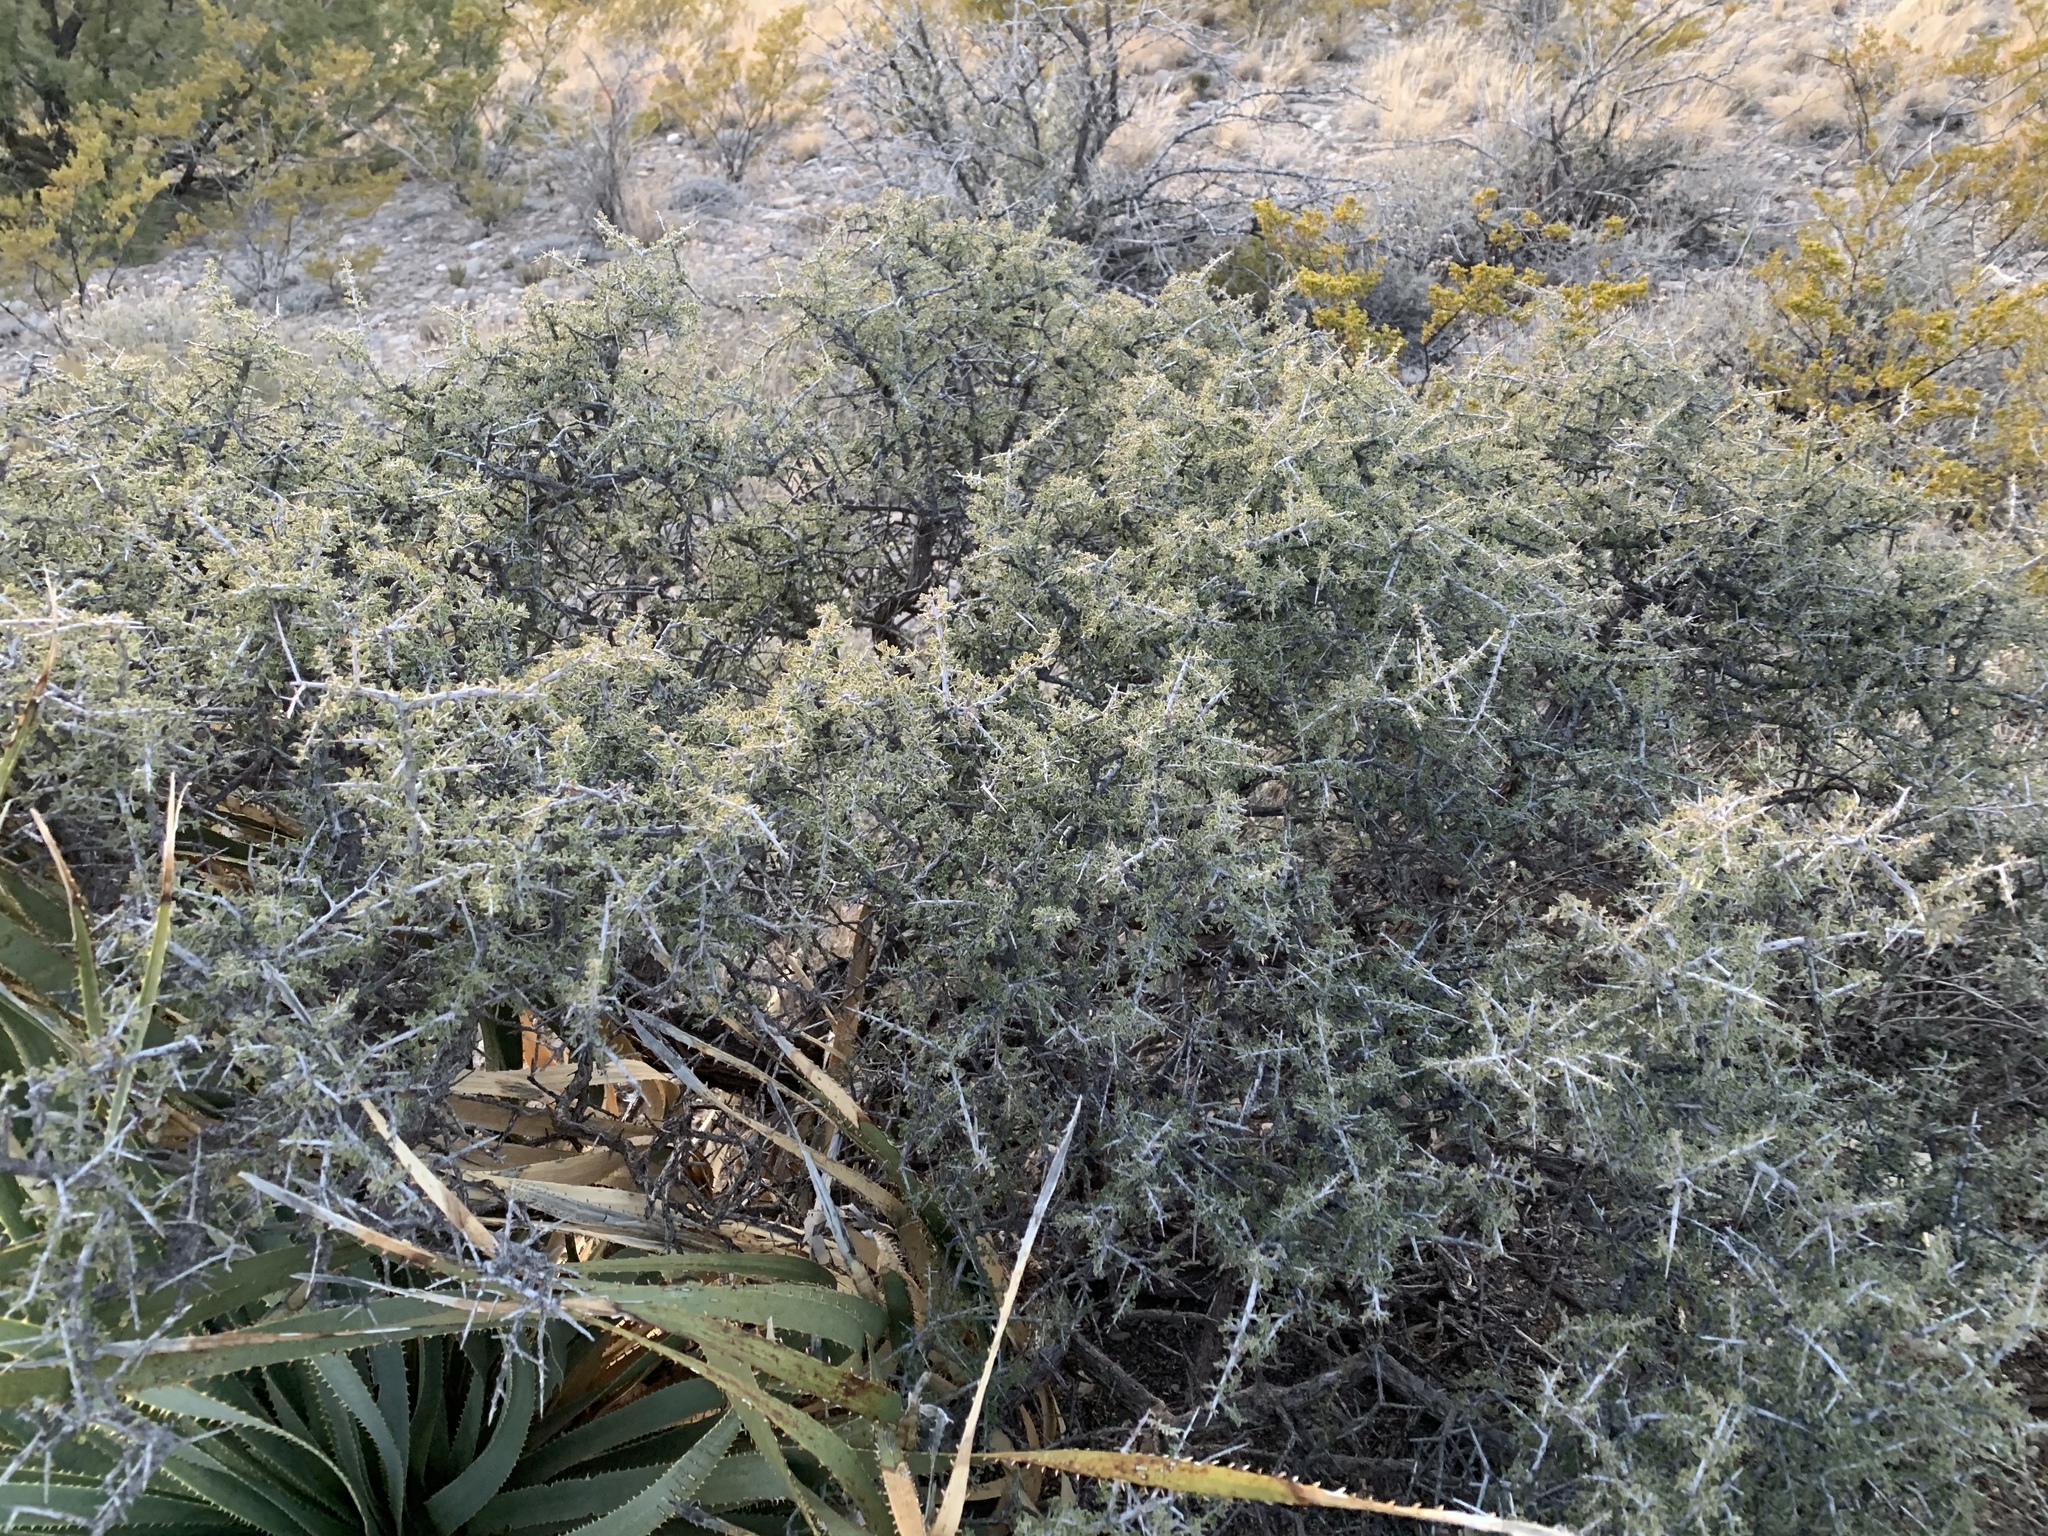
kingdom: Plantae
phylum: Tracheophyta
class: Magnoliopsida
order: Rosales
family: Rhamnaceae
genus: Condalia
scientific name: Condalia warnockii
